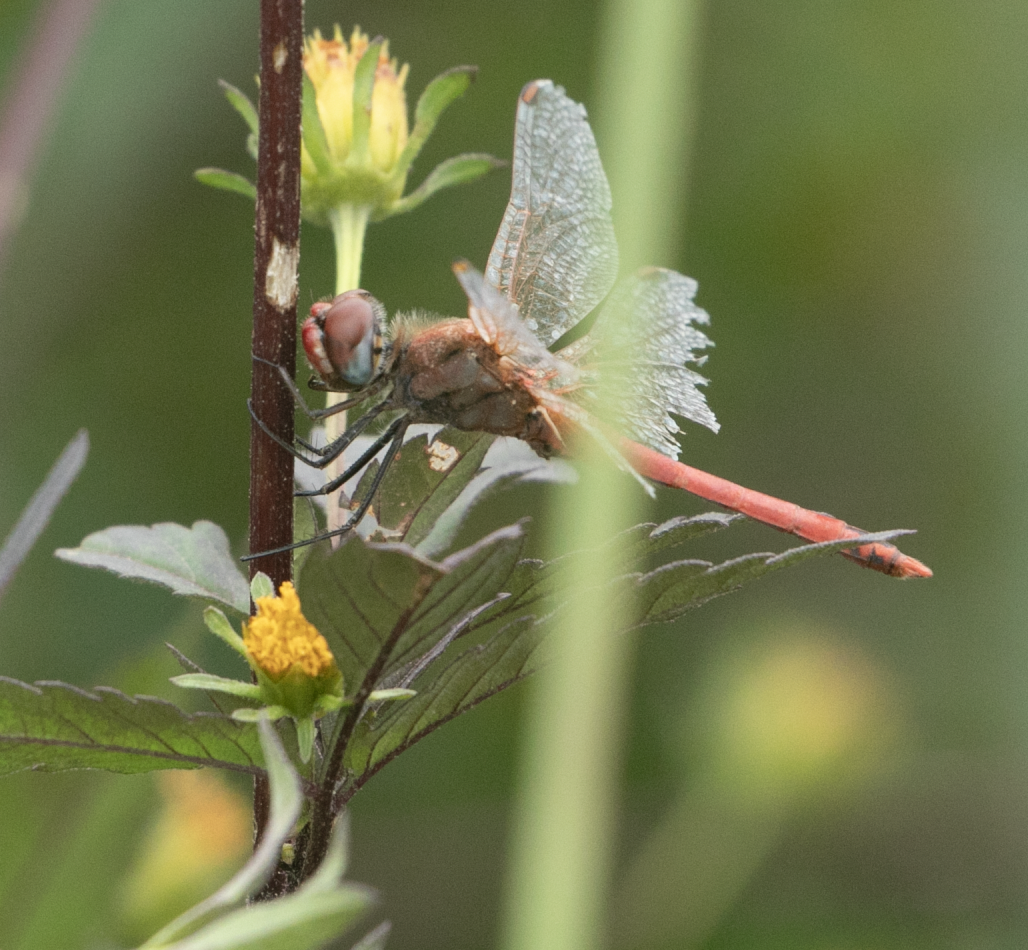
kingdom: Animalia
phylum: Arthropoda
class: Insecta
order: Odonata
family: Libellulidae
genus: Sympetrum
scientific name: Sympetrum fonscolombii
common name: Red-veined darter
